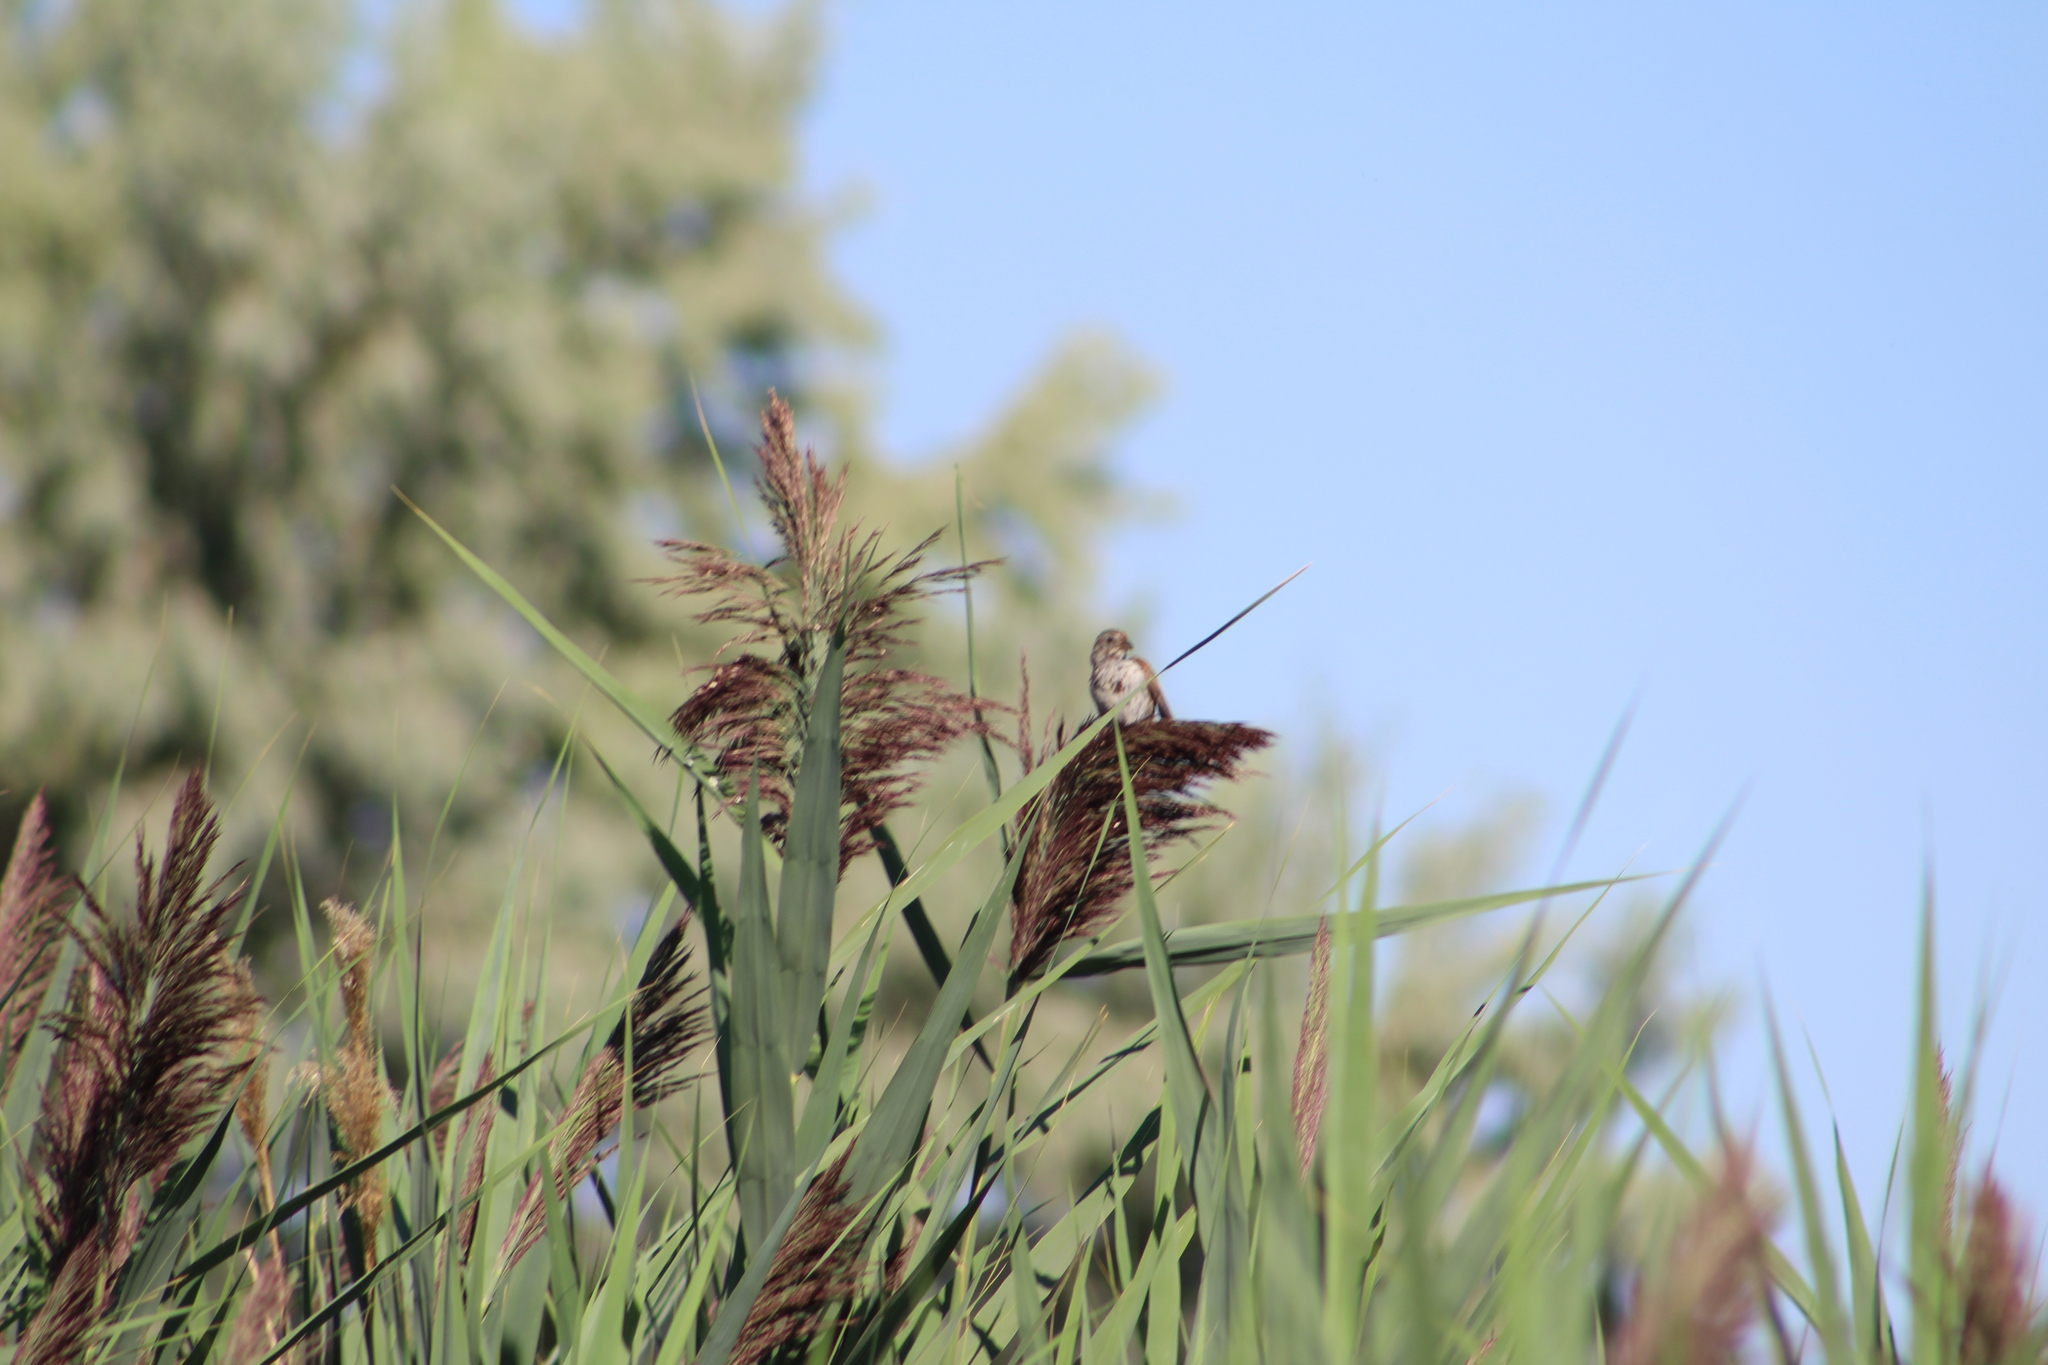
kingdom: Animalia
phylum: Chordata
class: Aves
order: Passeriformes
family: Passerellidae
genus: Melospiza
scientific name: Melospiza melodia
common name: Song sparrow
